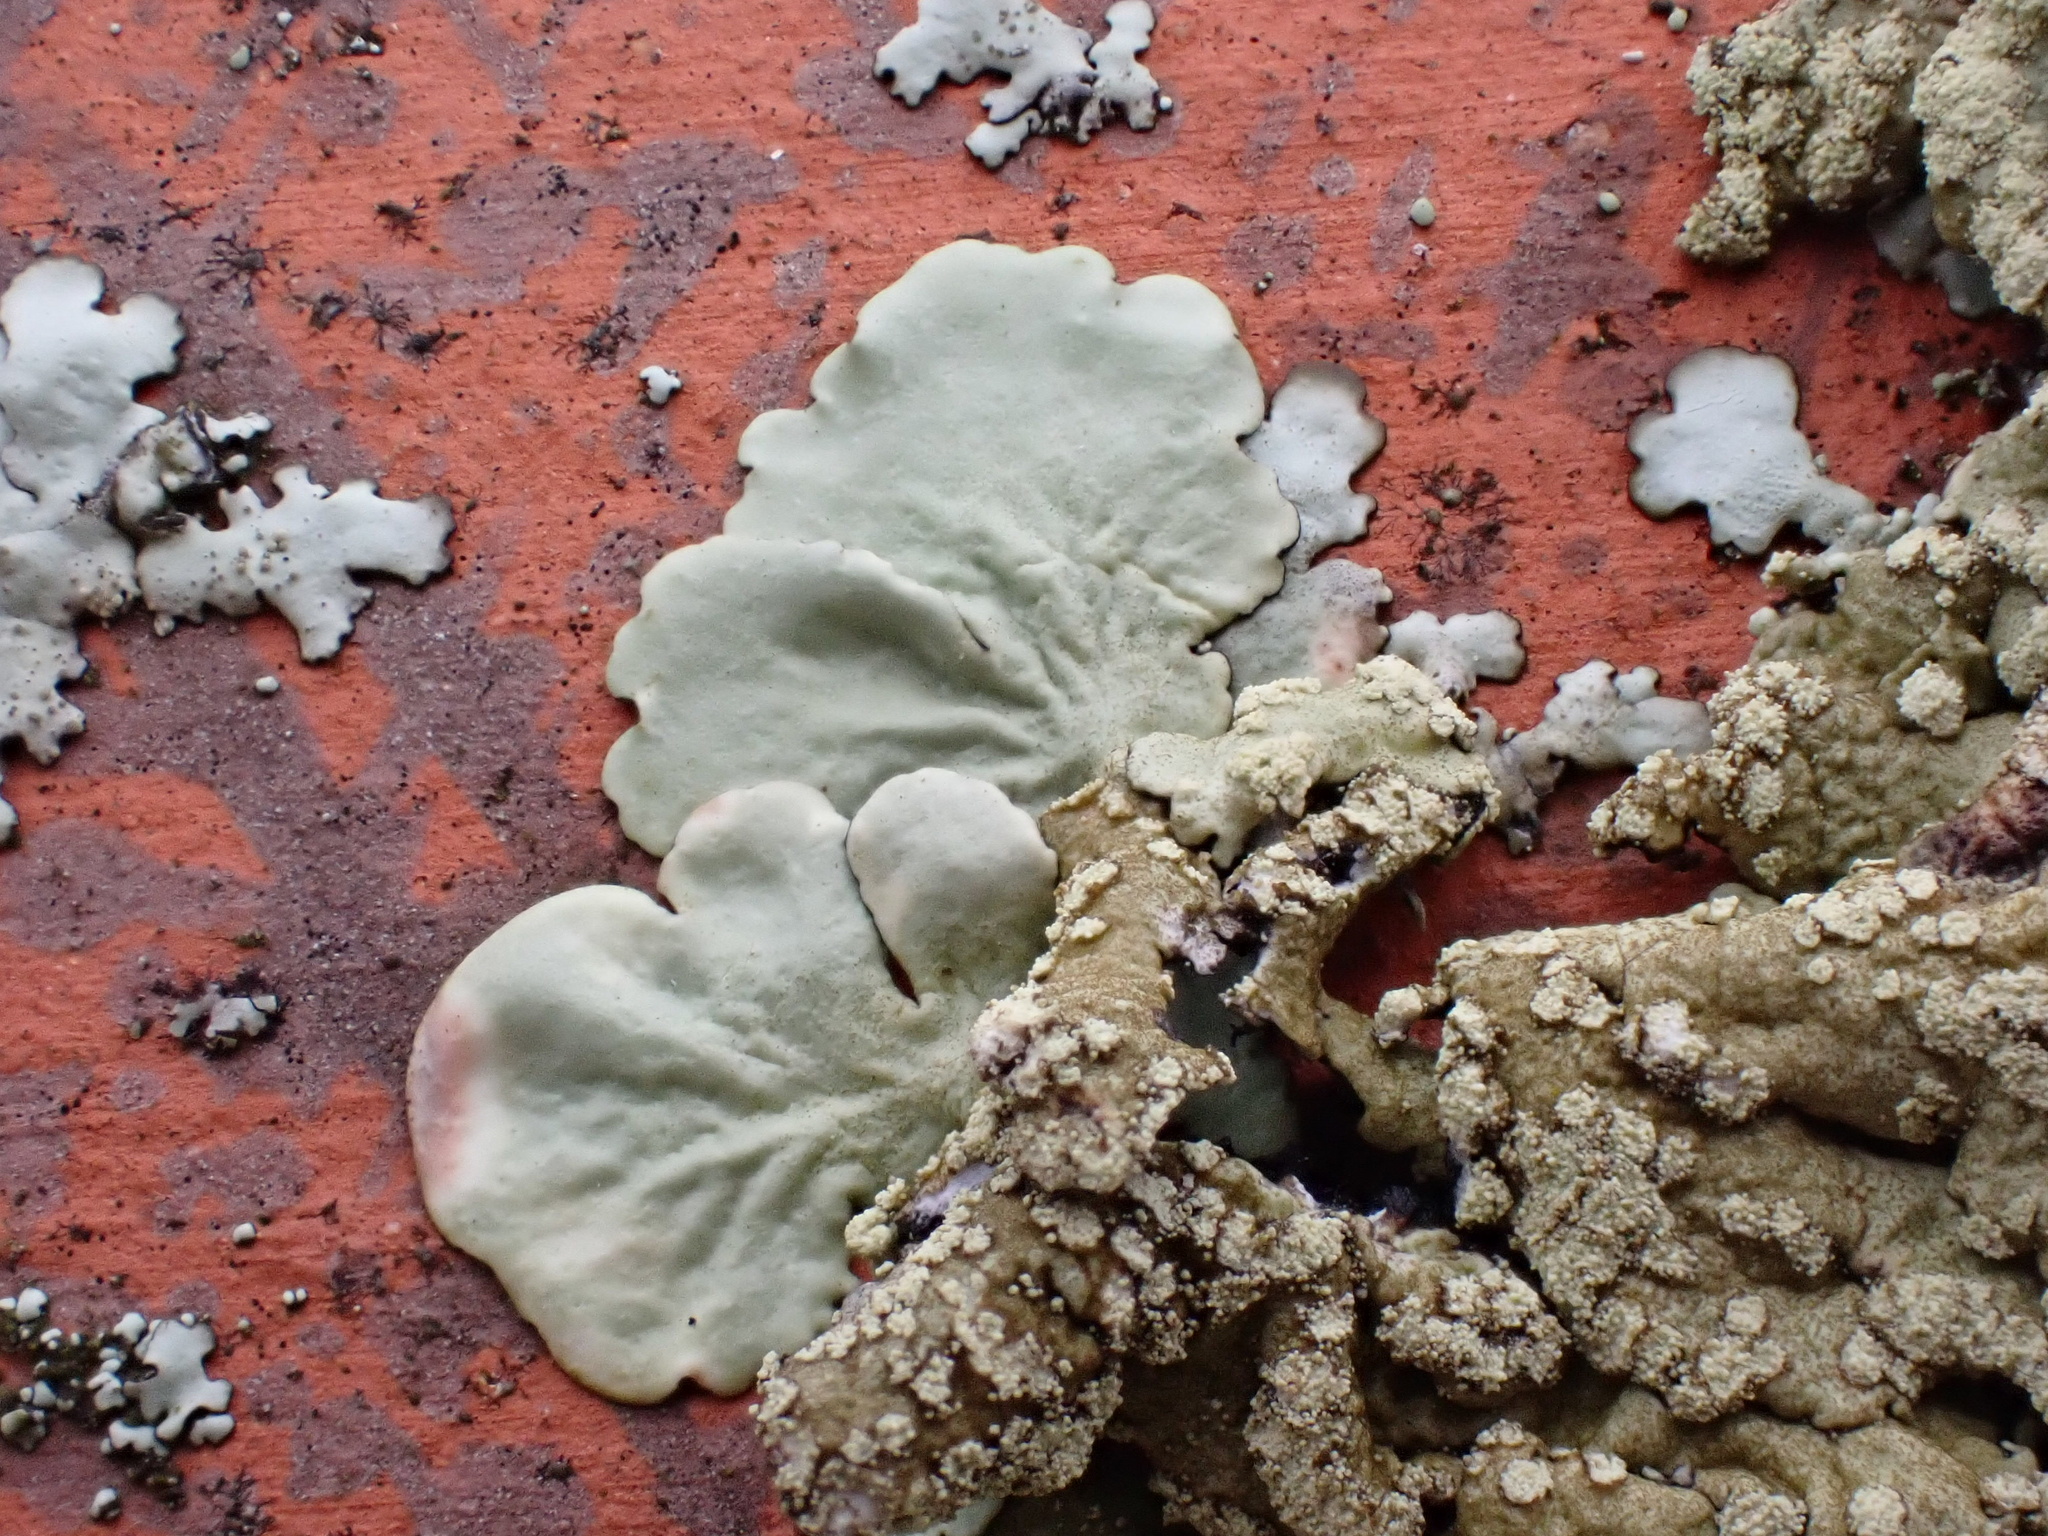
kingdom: Fungi
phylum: Ascomycota
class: Lecanoromycetes
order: Lecanorales
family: Parmeliaceae
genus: Flavoparmelia
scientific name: Flavoparmelia soredians
